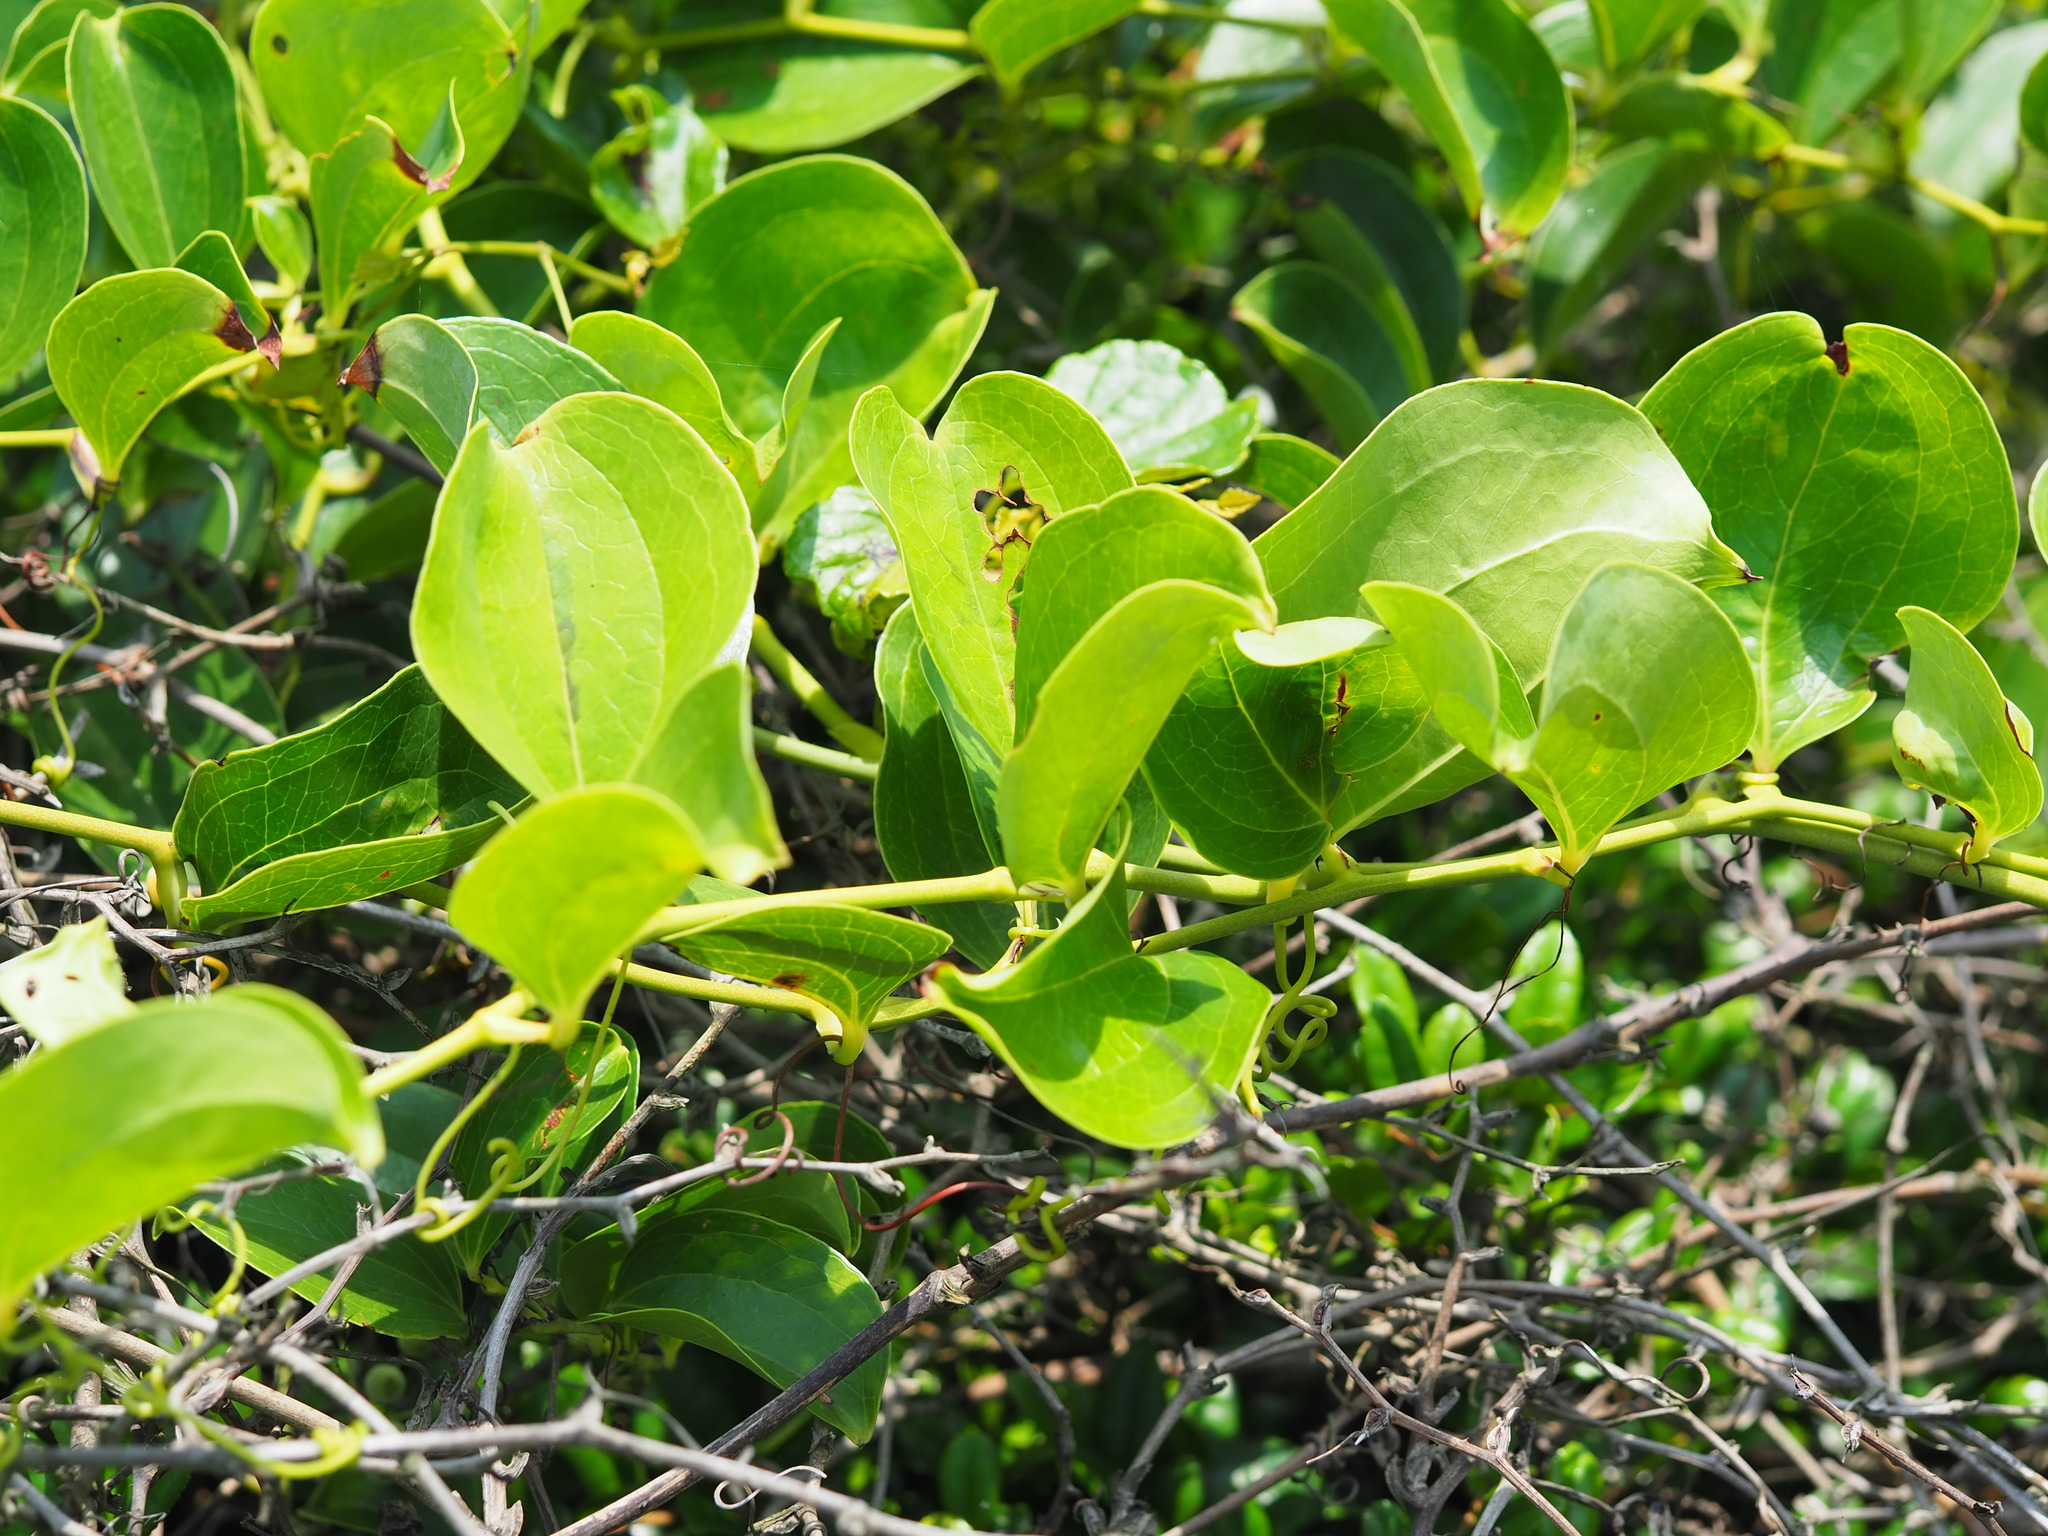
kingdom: Plantae
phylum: Tracheophyta
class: Liliopsida
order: Liliales
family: Smilacaceae
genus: Smilax
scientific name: Smilax china
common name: Chinaroot
